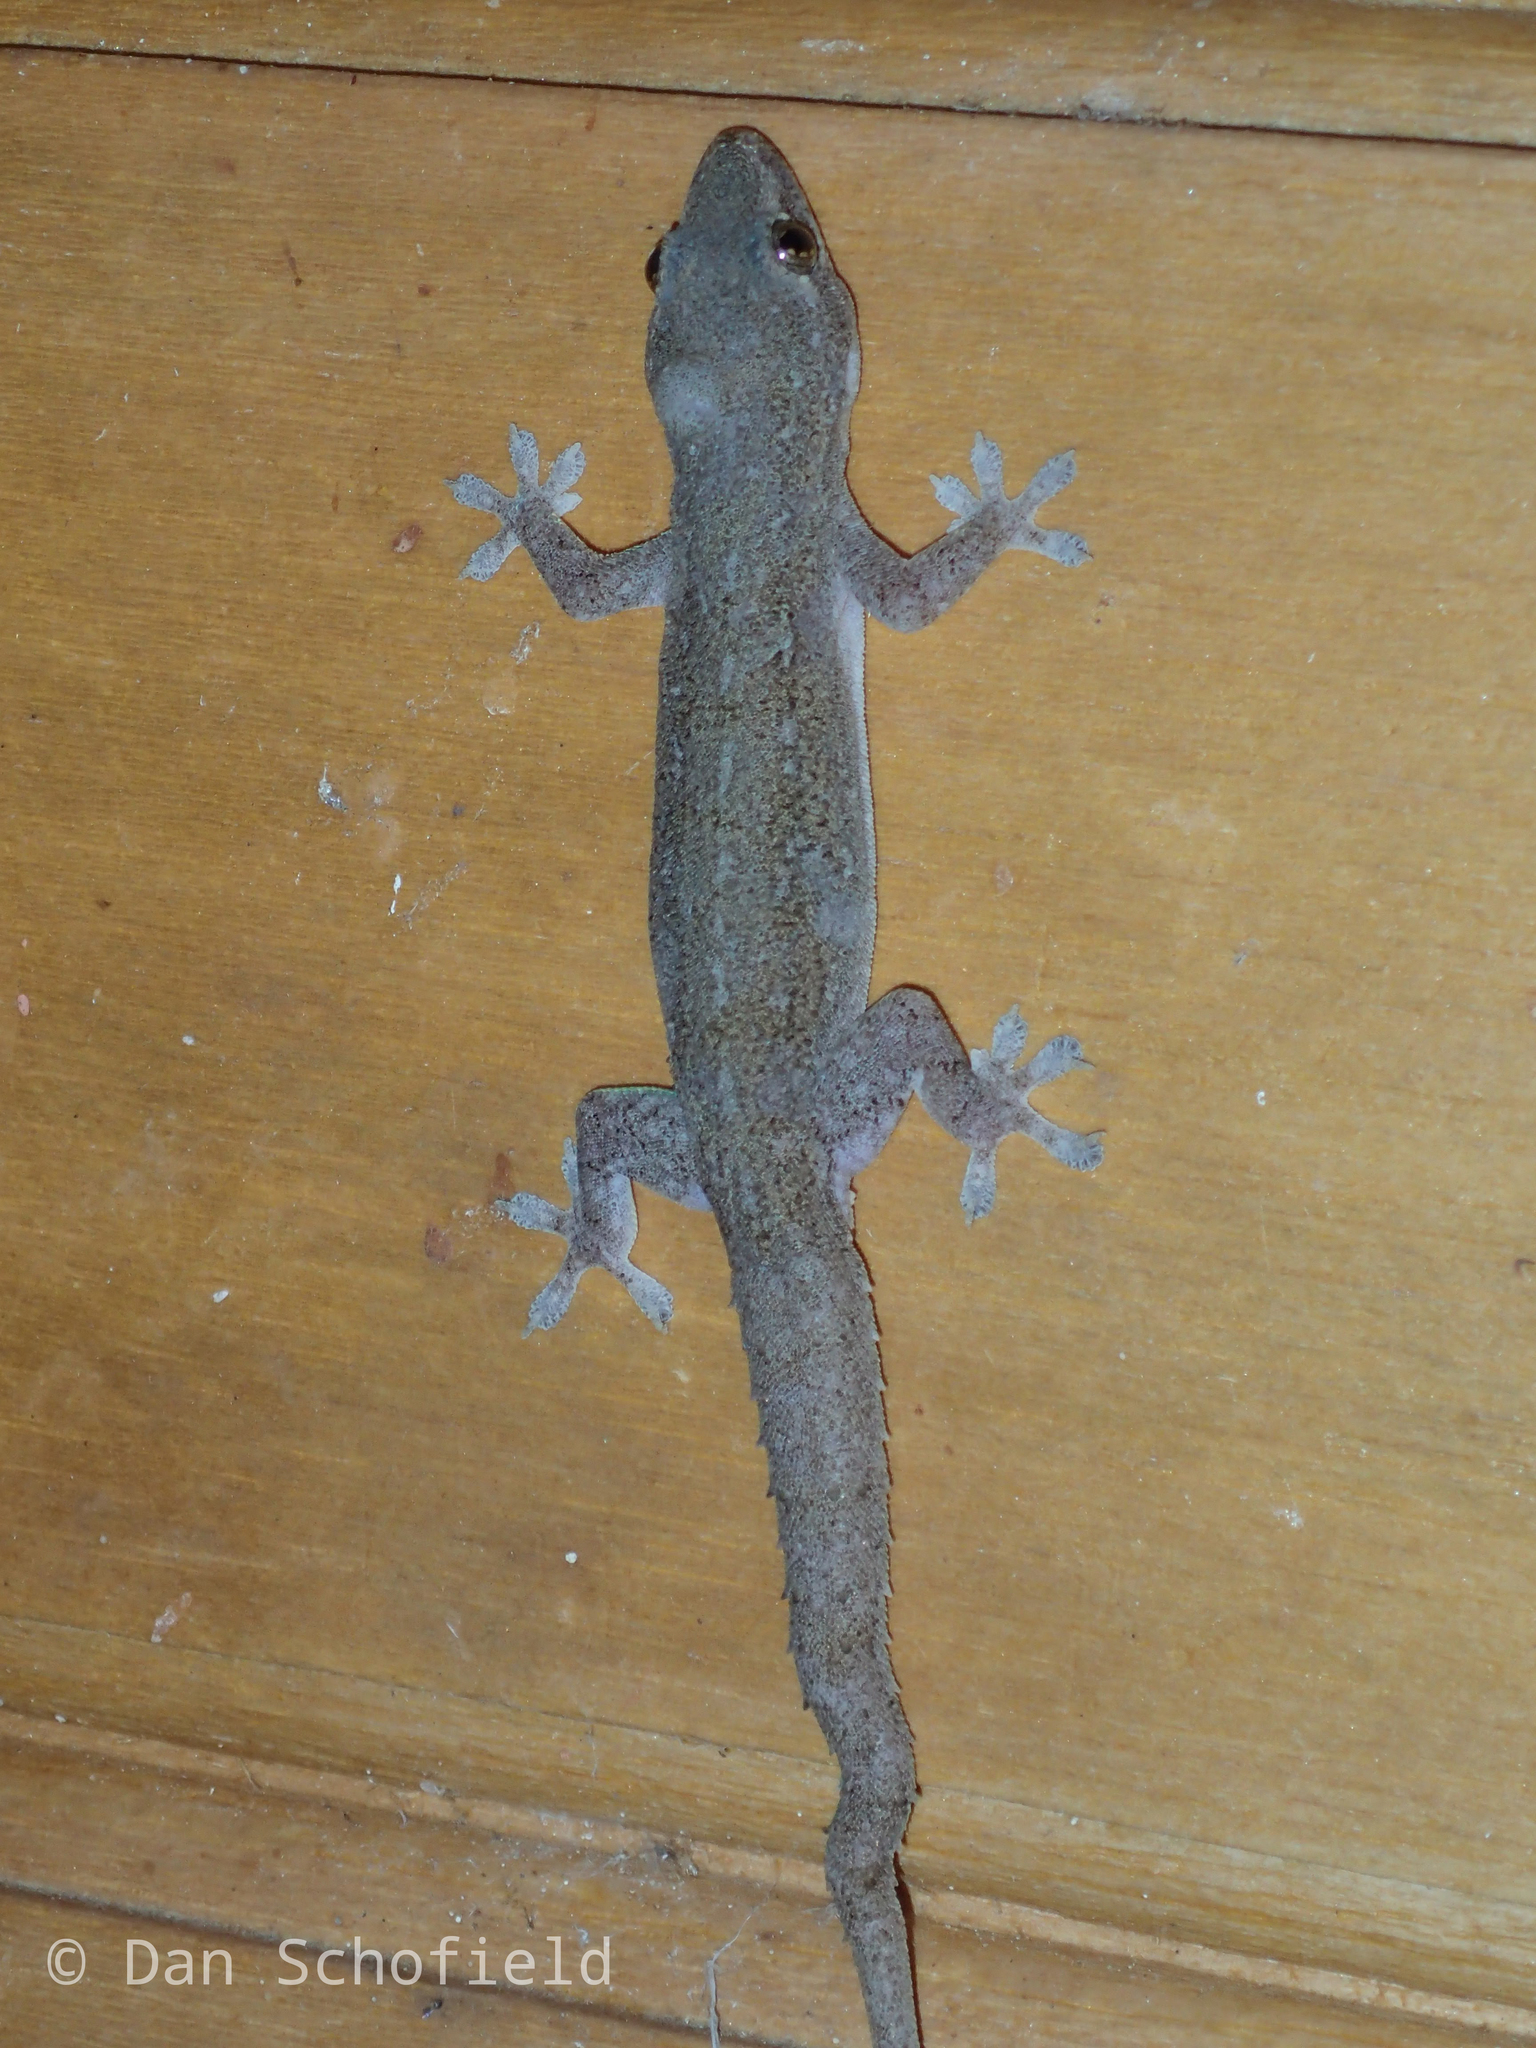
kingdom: Animalia
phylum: Chordata
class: Squamata
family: Gekkonidae
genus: Hemidactylus
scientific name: Hemidactylus frenatus
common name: Common house gecko
